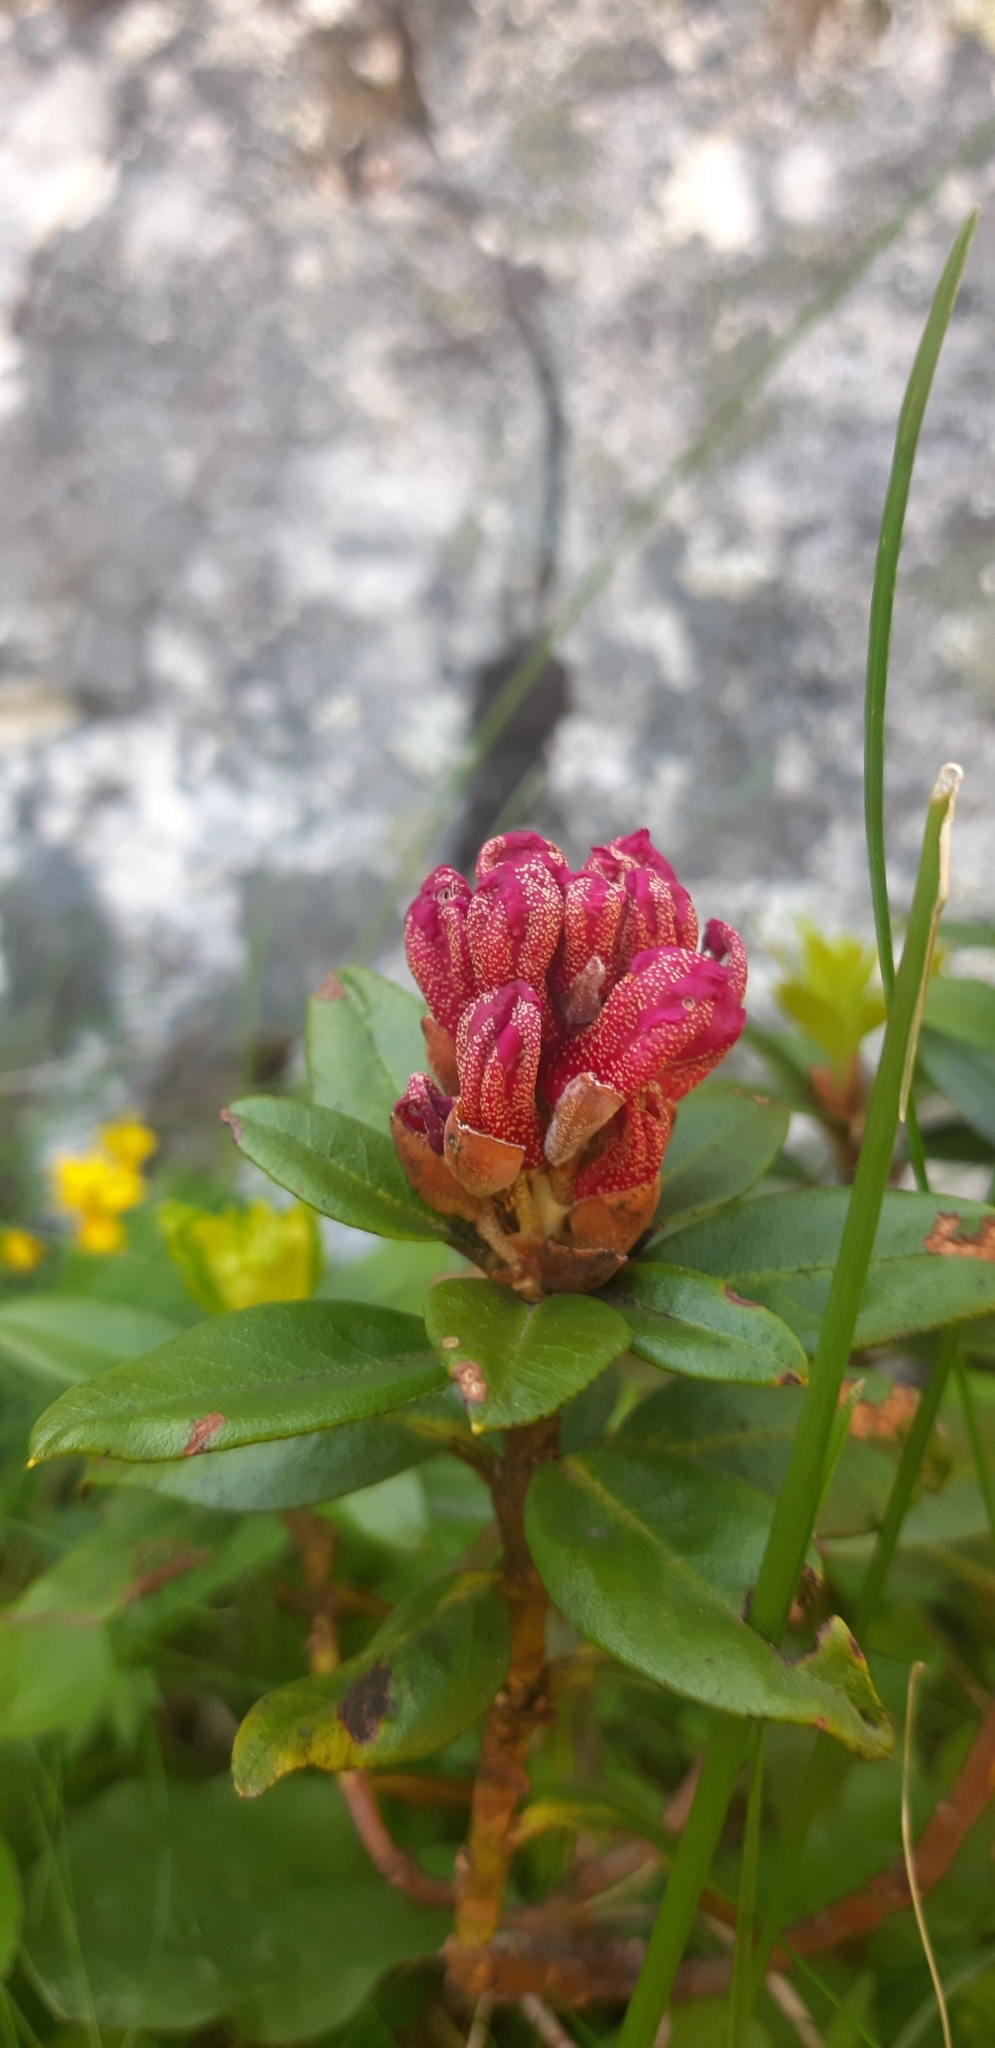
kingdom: Plantae
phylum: Tracheophyta
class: Magnoliopsida
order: Ericales
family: Ericaceae
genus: Rhododendron
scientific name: Rhododendron ferrugineum
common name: Alpenrose
